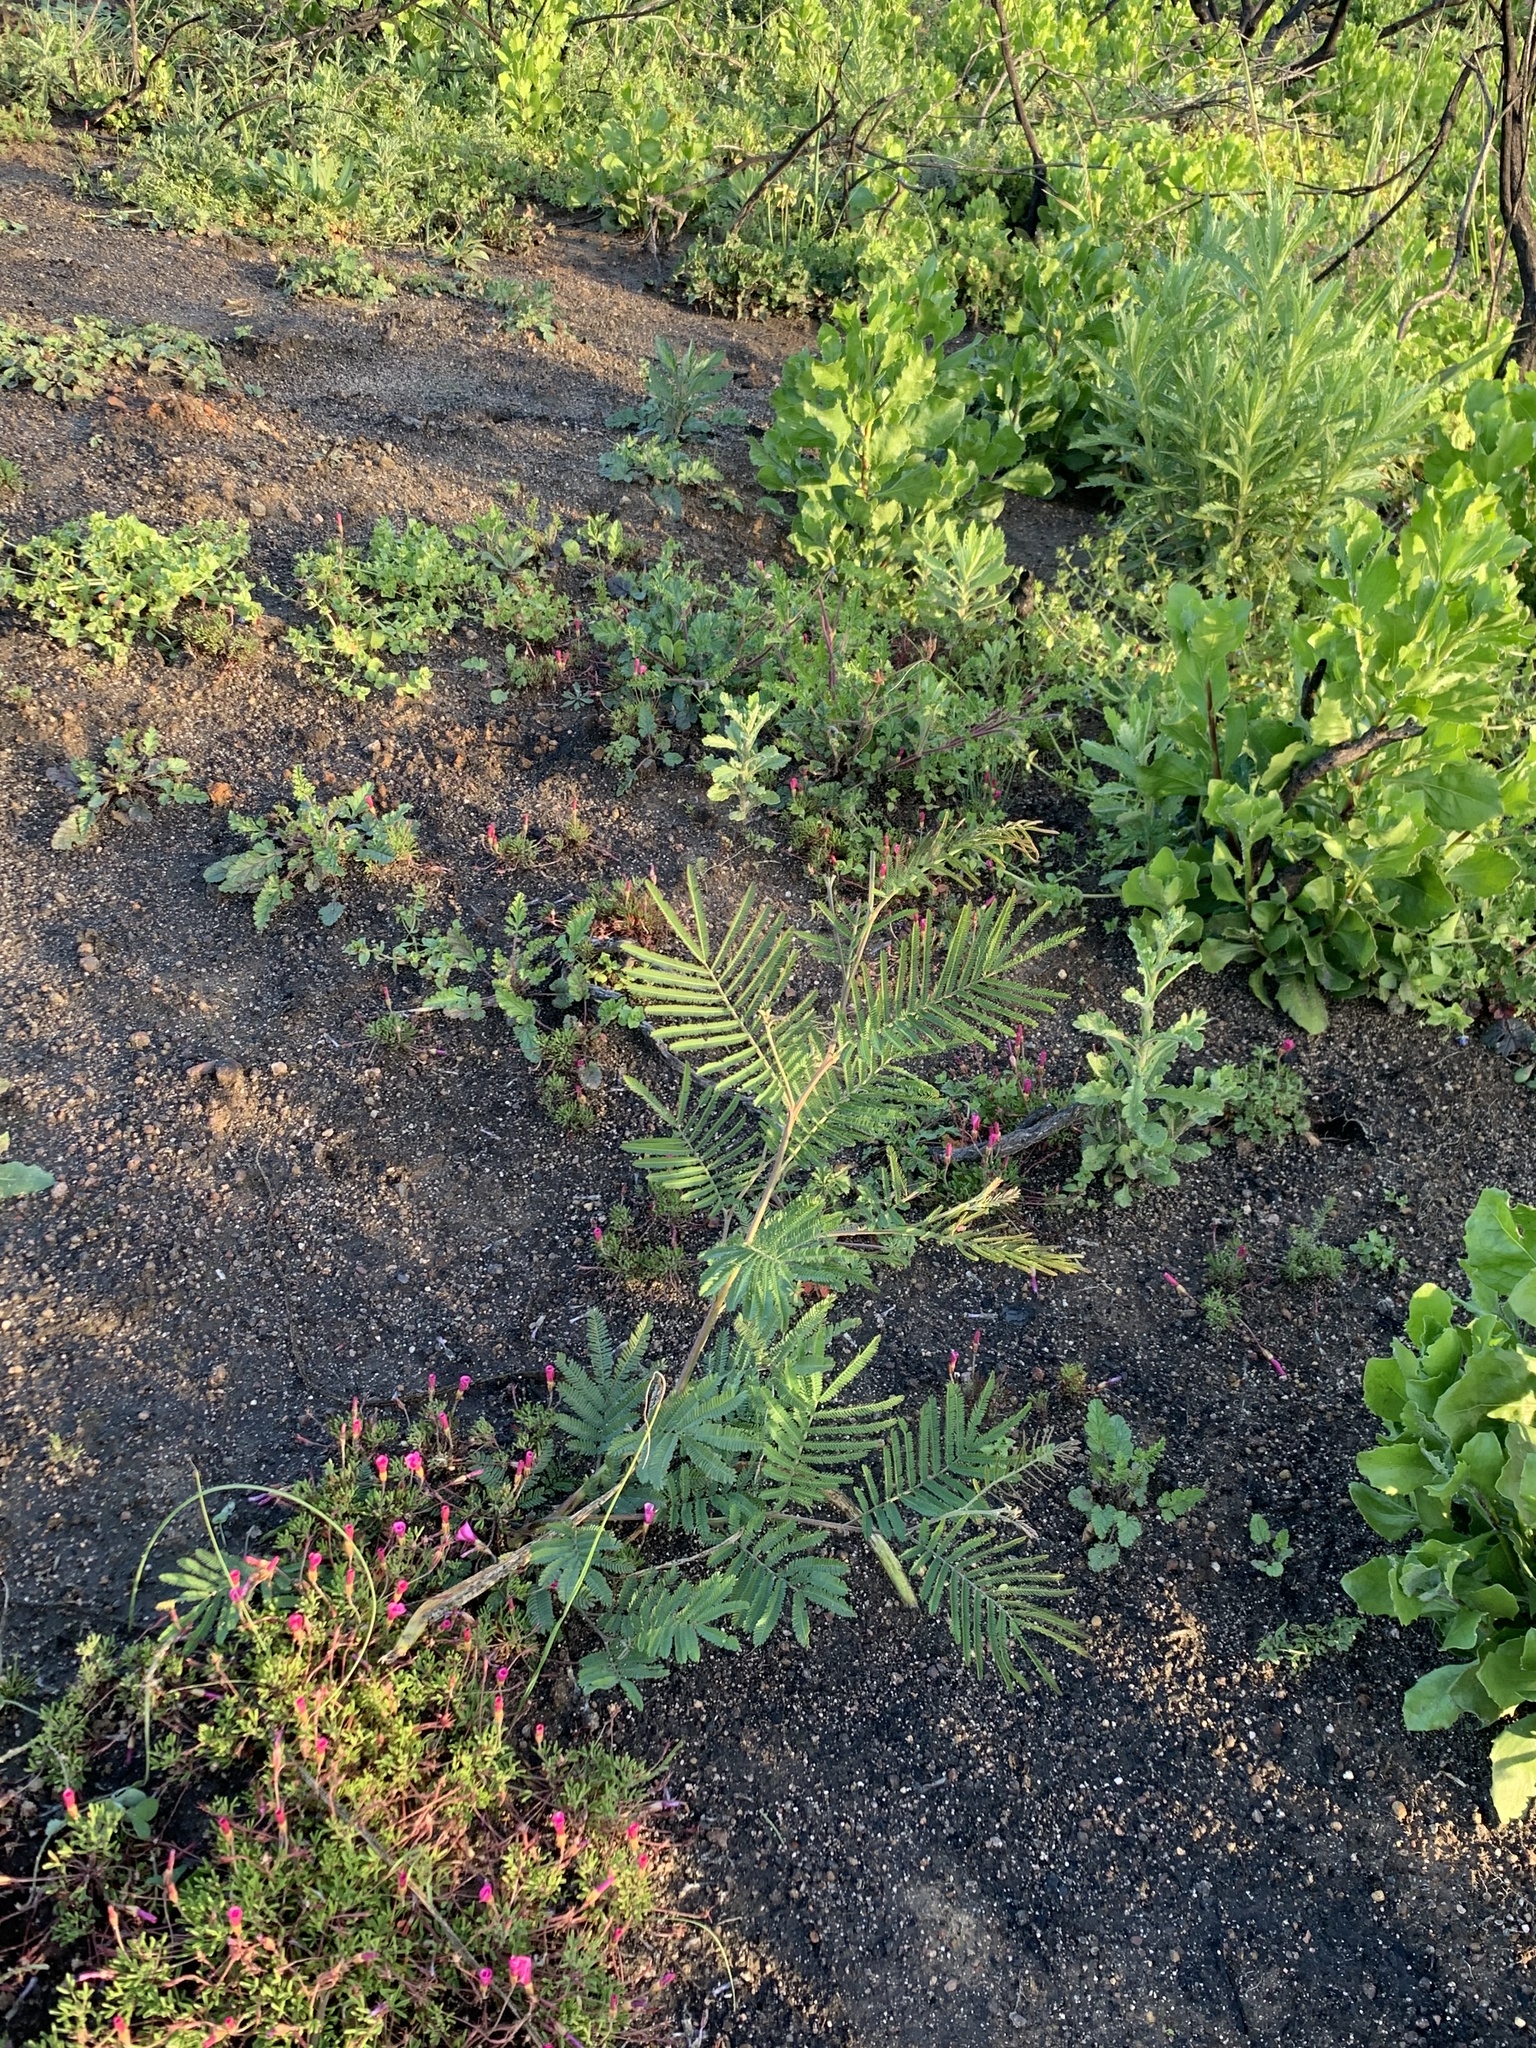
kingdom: Plantae
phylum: Tracheophyta
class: Magnoliopsida
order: Fabales
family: Fabaceae
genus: Acacia
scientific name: Acacia mearnsii
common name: Black wattle
